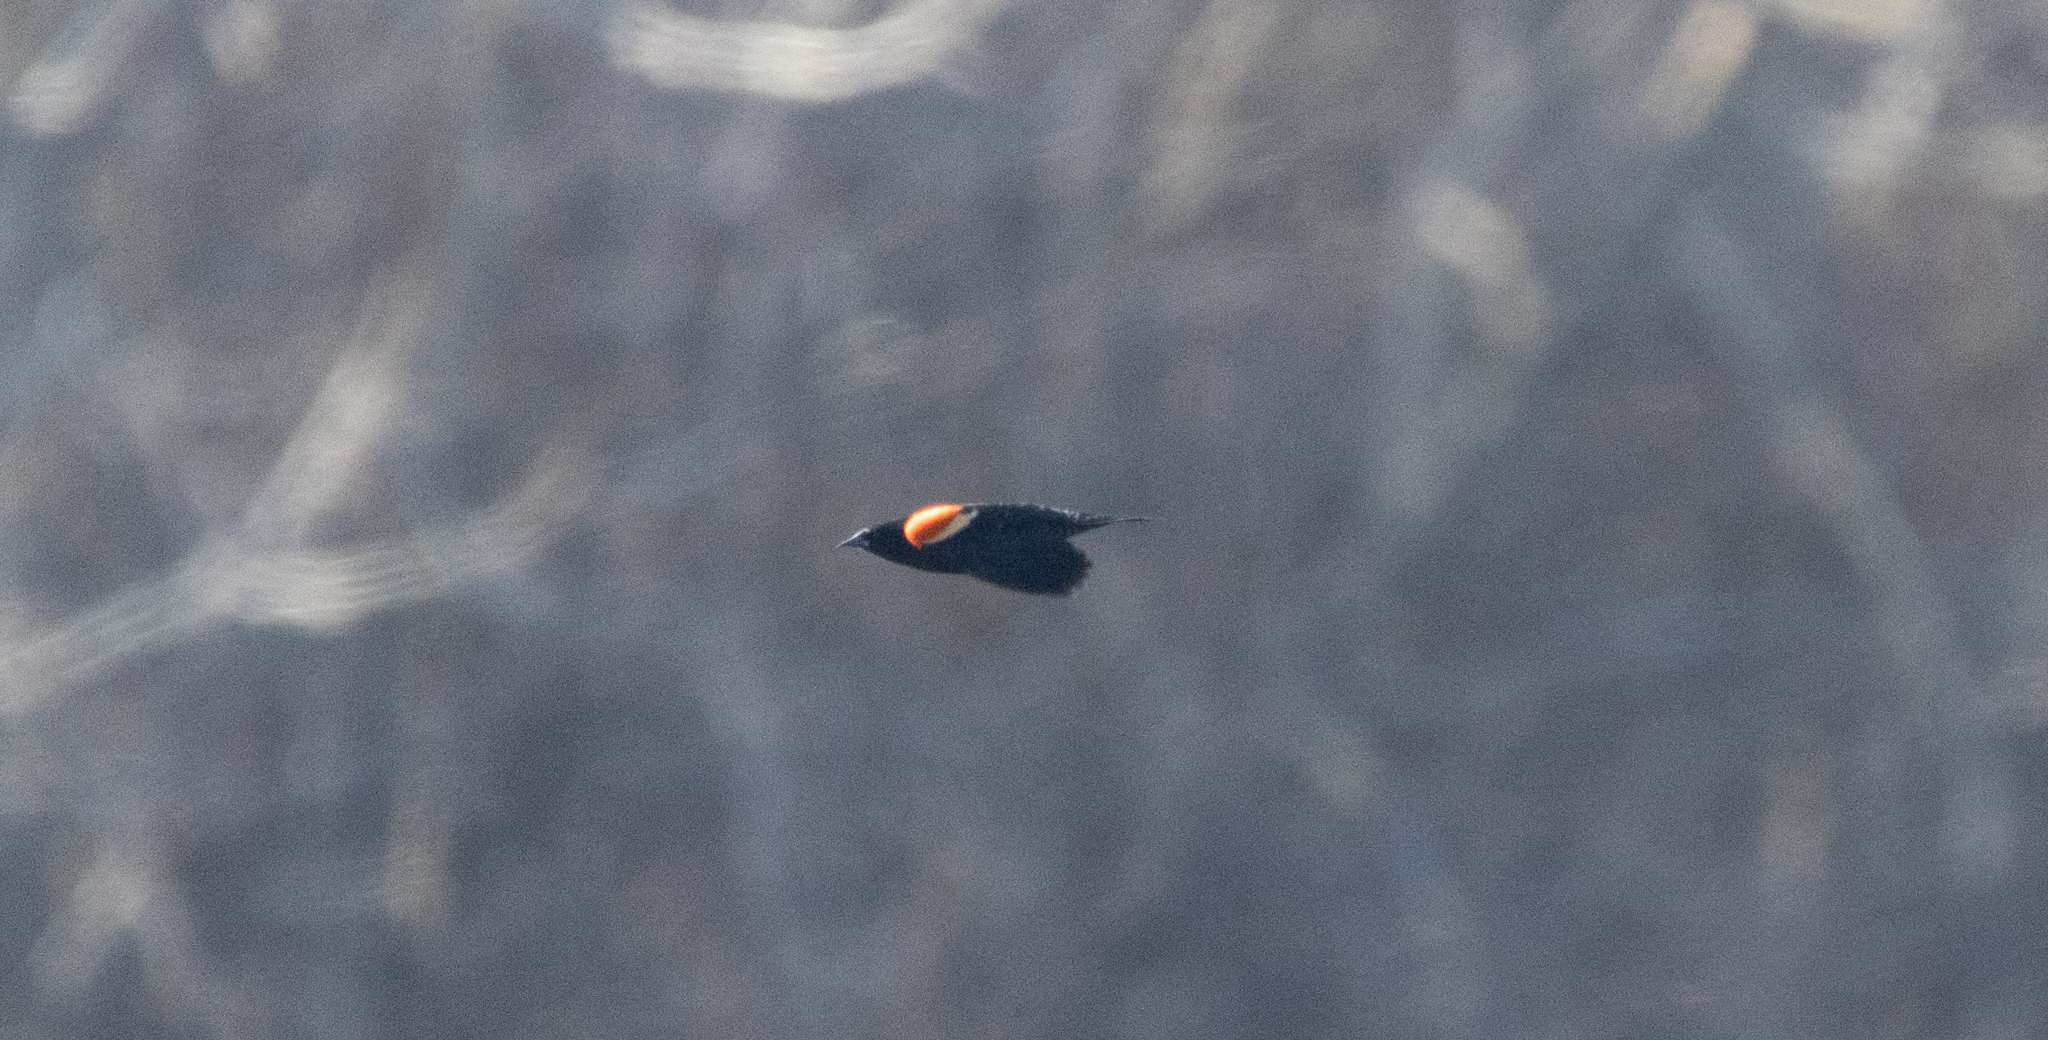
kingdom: Animalia
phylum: Chordata
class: Aves
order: Passeriformes
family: Icteridae
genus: Agelaius
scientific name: Agelaius phoeniceus
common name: Red-winged blackbird
